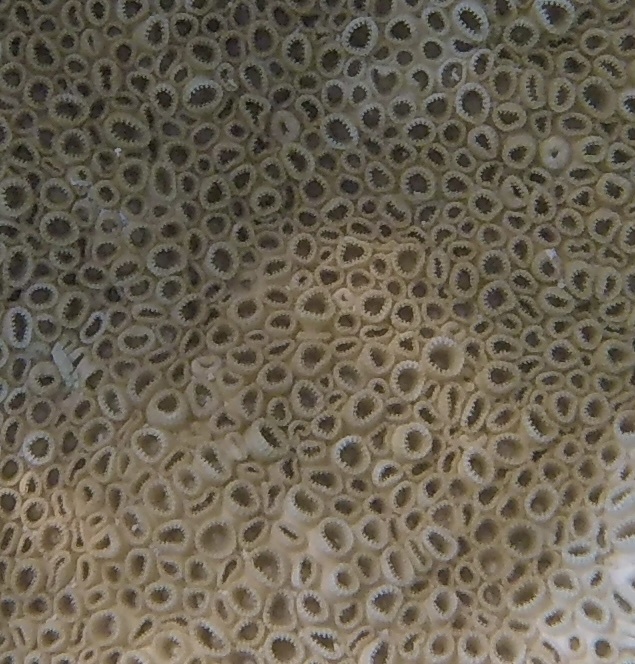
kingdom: Animalia
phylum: Cnidaria
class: Anthozoa
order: Zoantharia
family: Sphenopidae
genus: Palythoa
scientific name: Palythoa caribaeorum
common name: Encrusting colonial anemone
